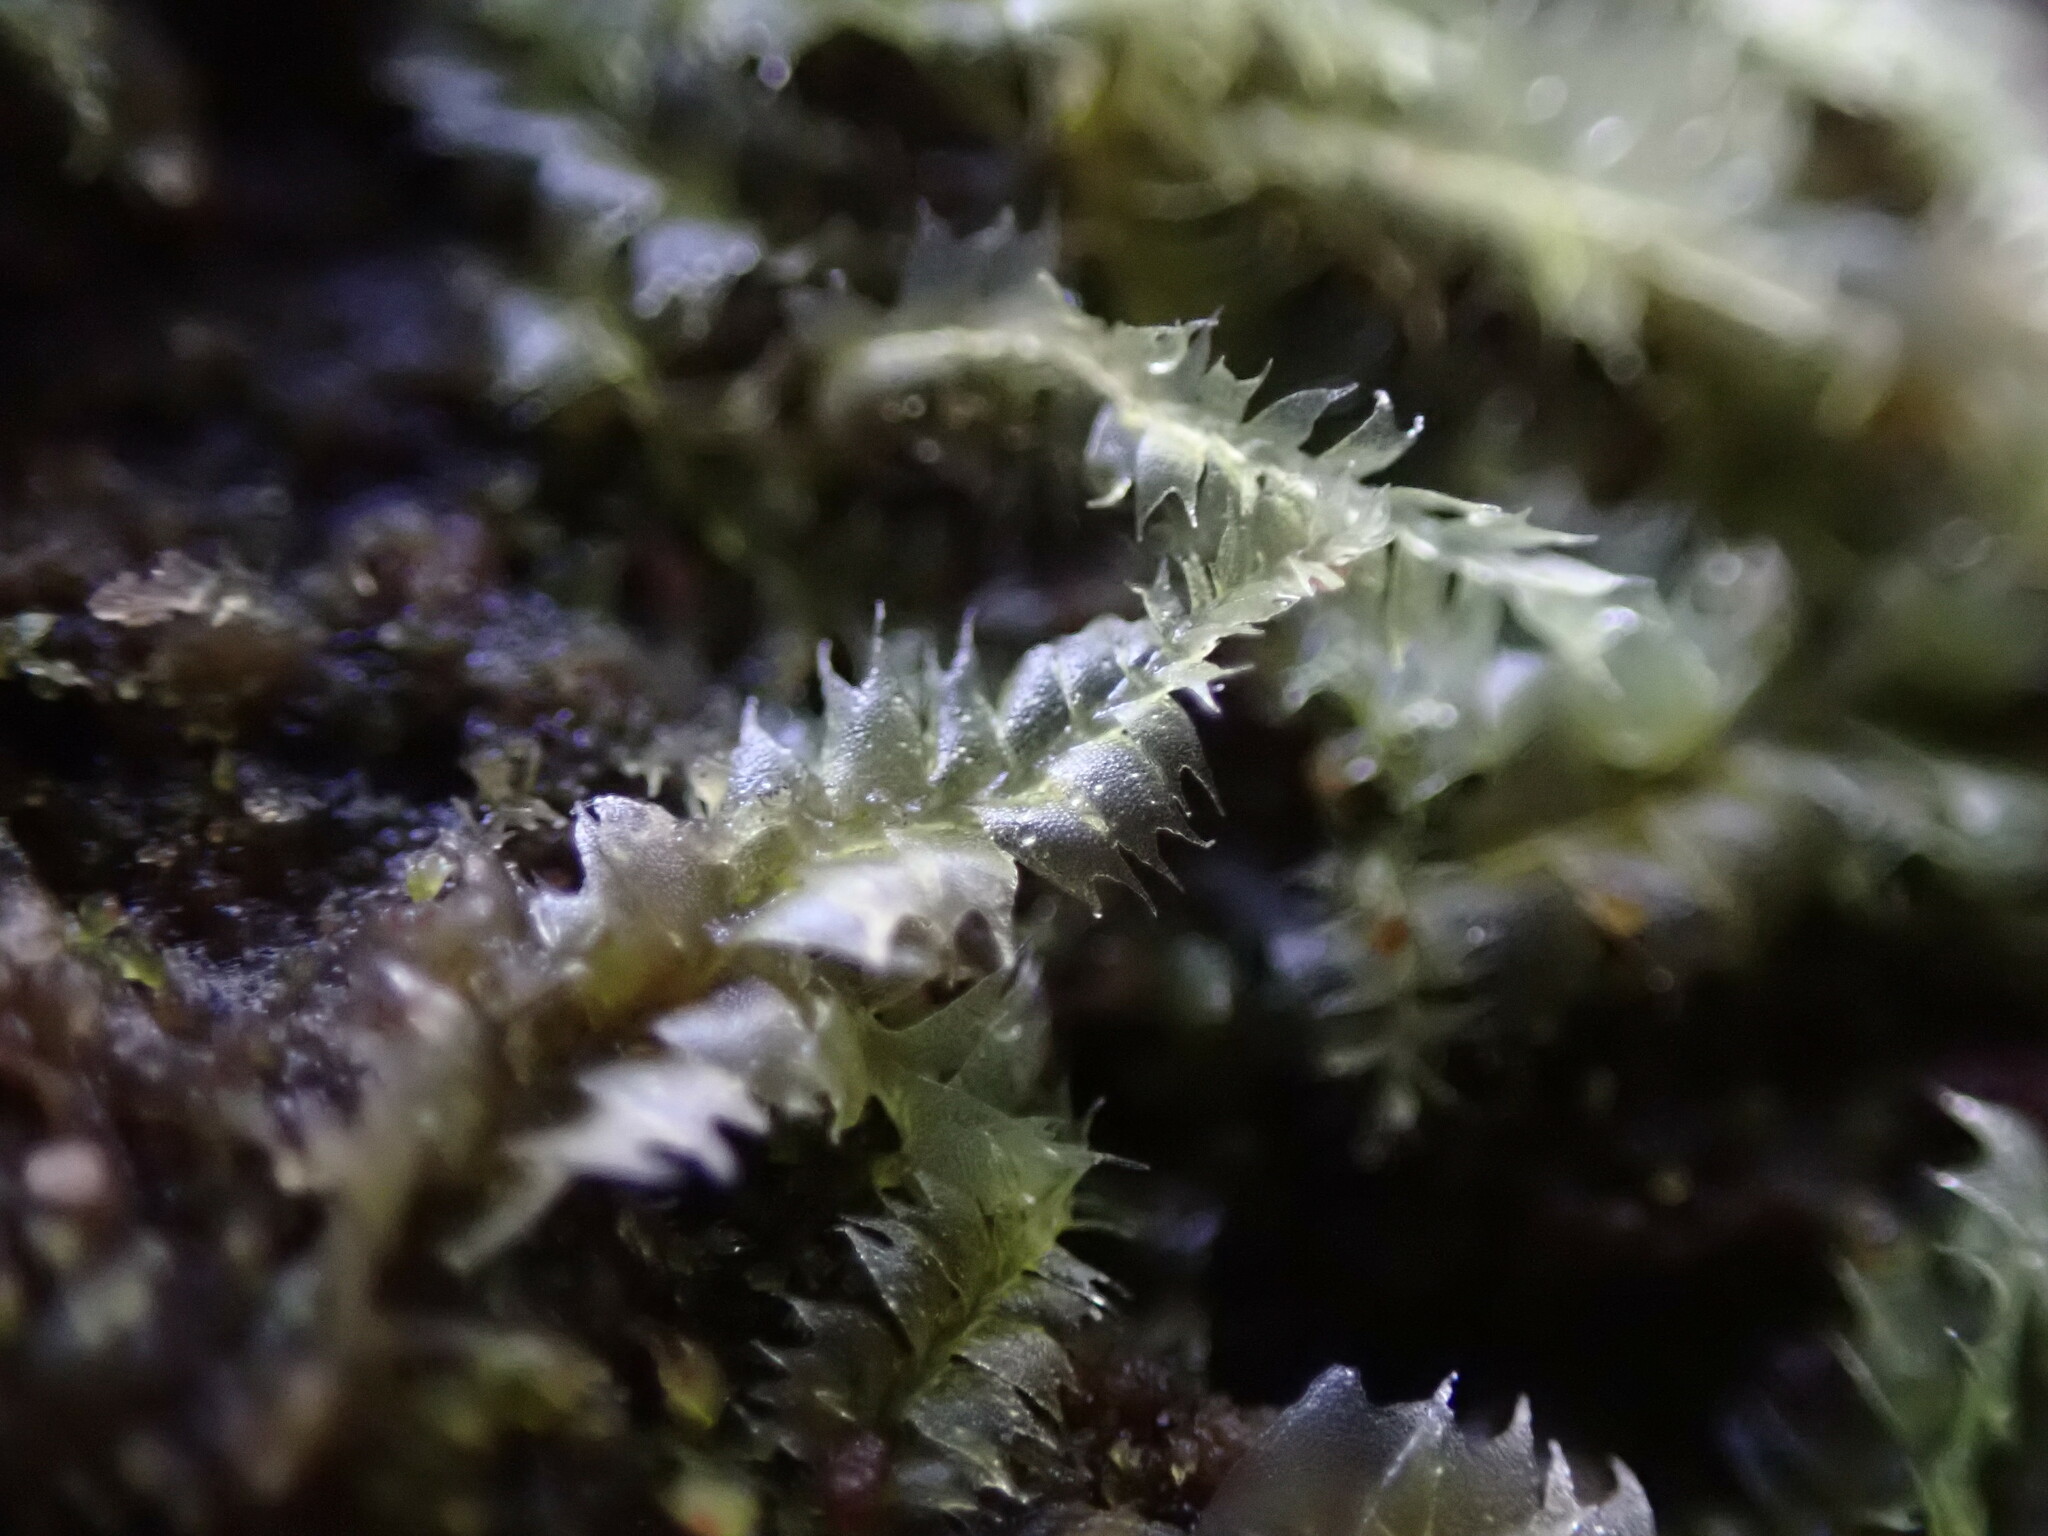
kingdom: Plantae
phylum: Marchantiophyta
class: Jungermanniopsida
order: Jungermanniales
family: Lophocoleaceae
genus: Lophocolea
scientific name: Lophocolea bidentata
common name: Bifid crestwort
